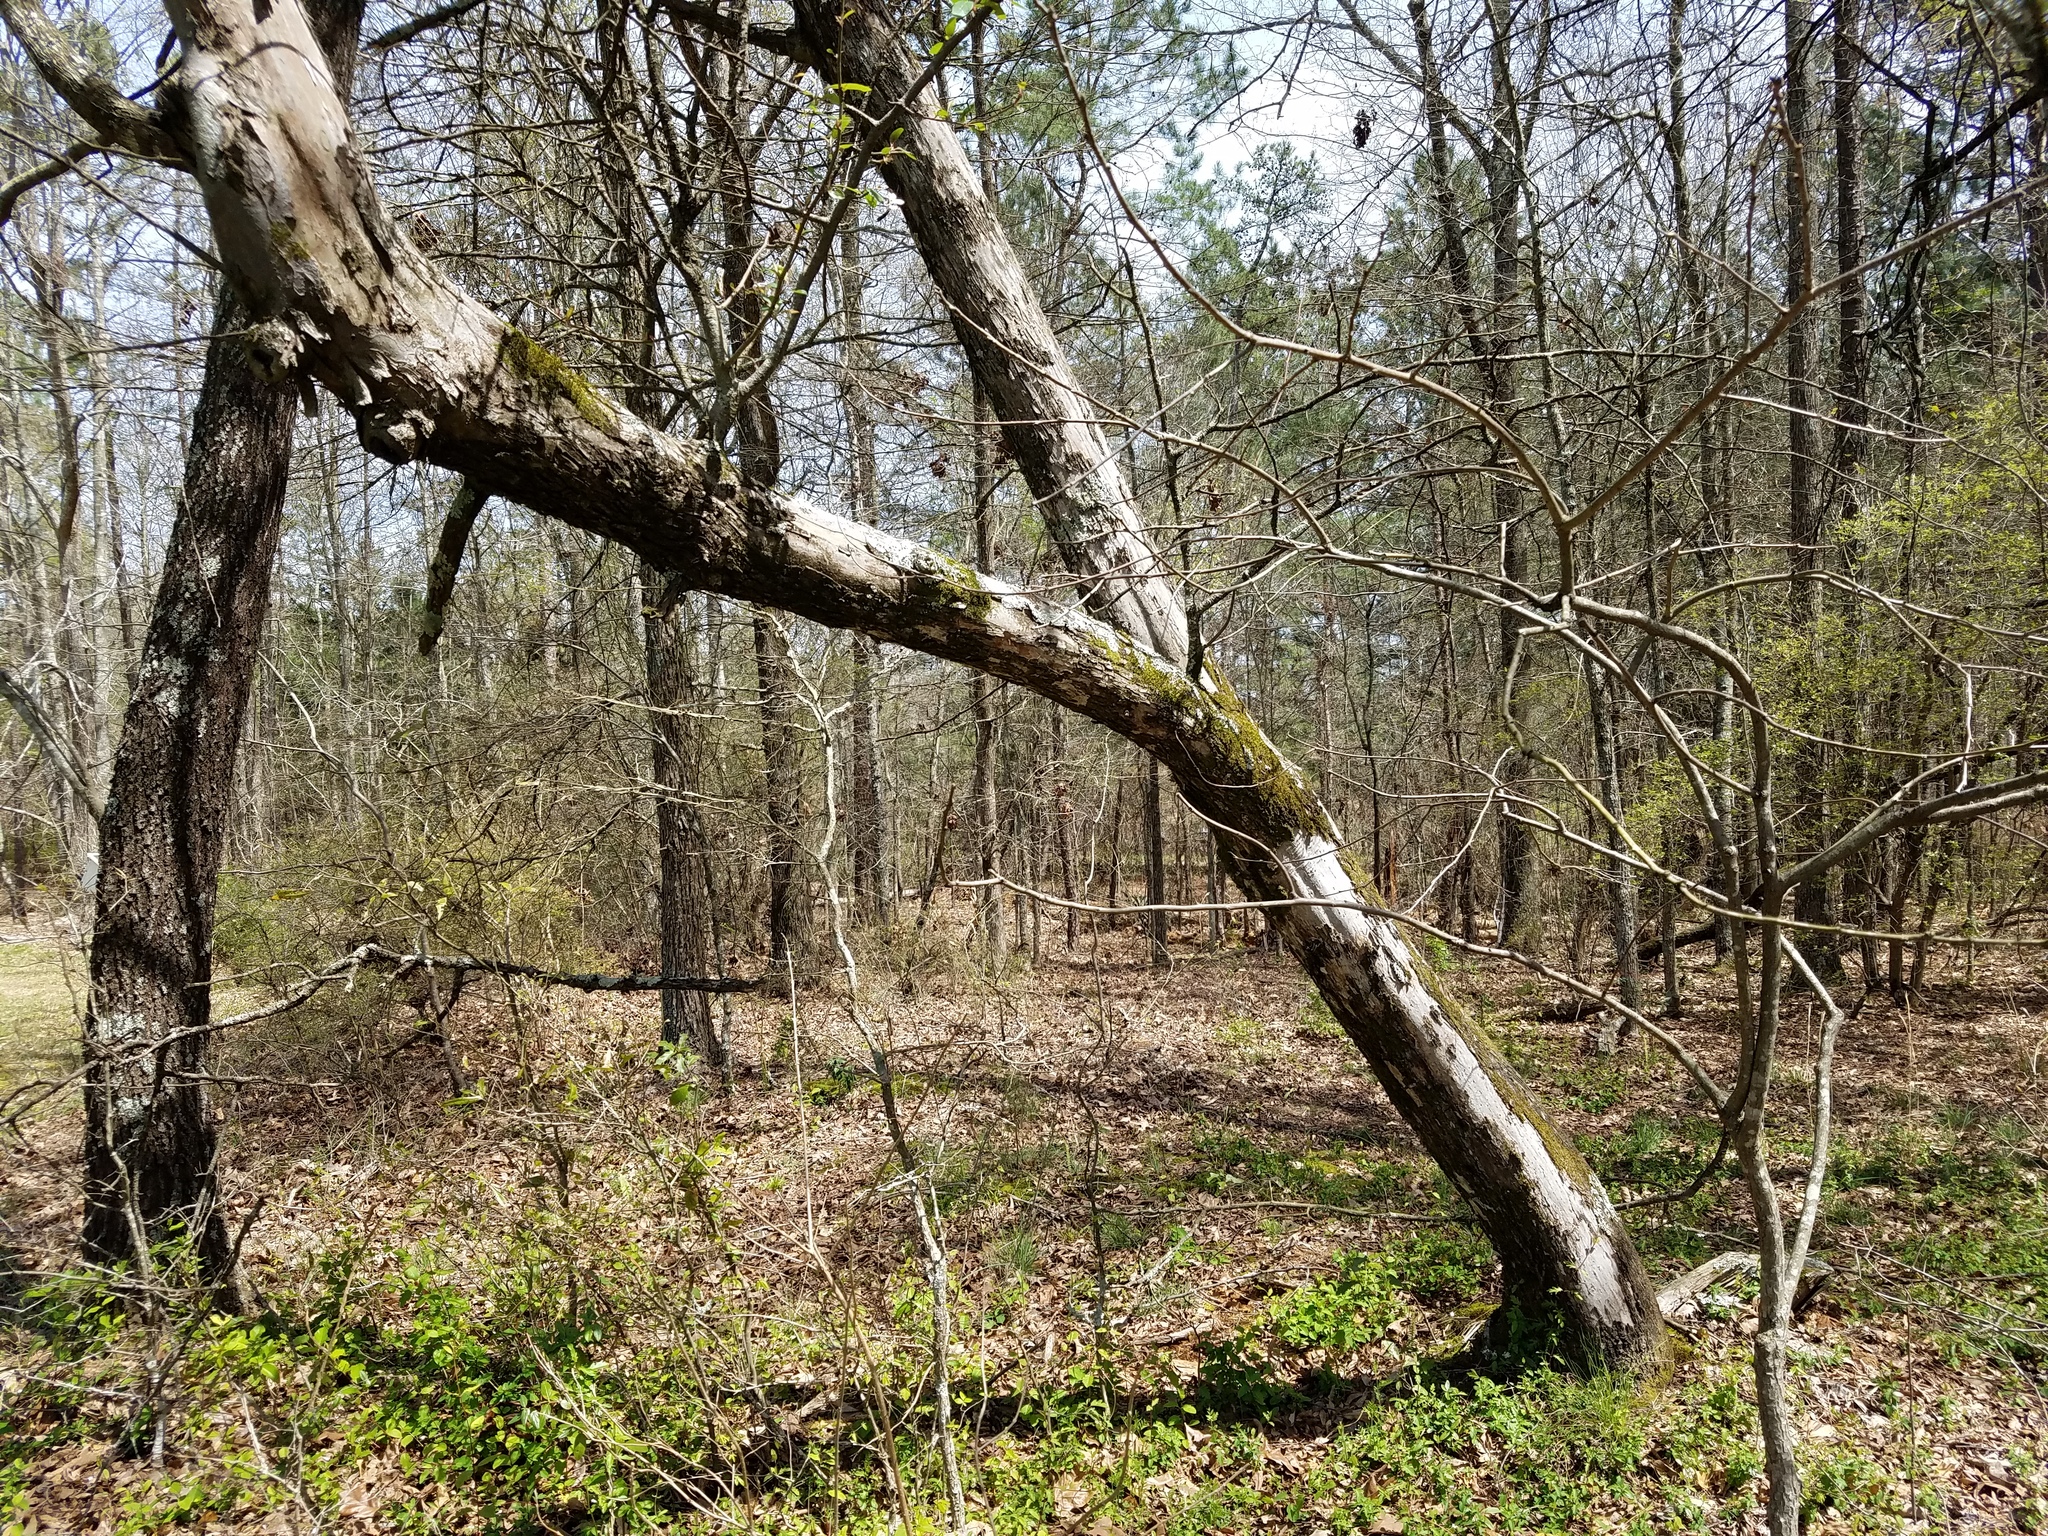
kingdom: Plantae
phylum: Tracheophyta
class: Magnoliopsida
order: Rosales
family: Rosaceae
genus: Malus
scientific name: Malus angustifolia
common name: Southern crab apple
